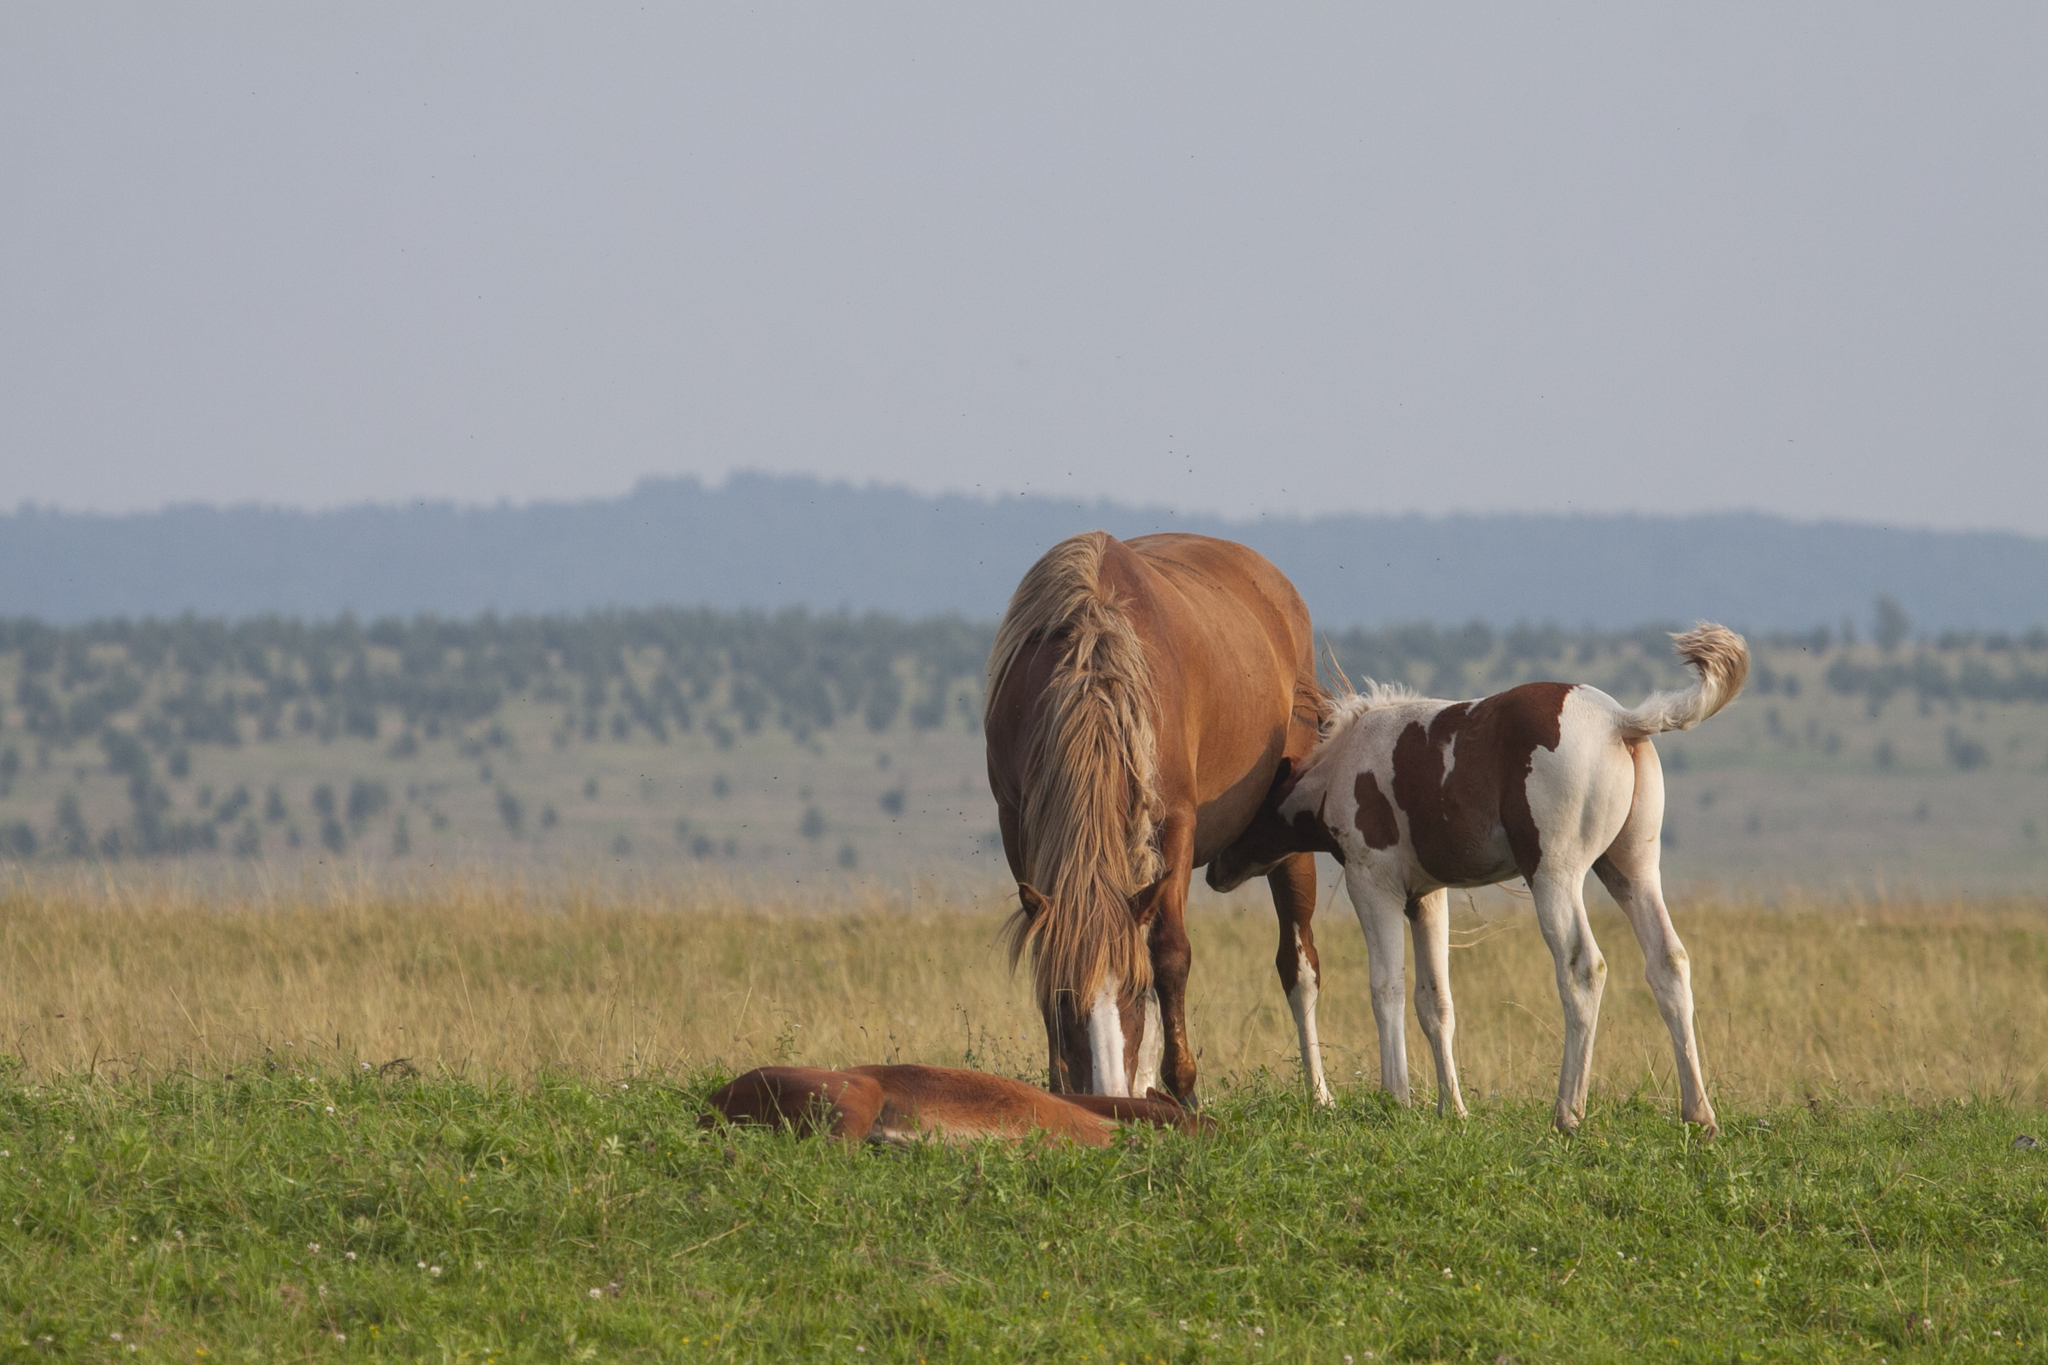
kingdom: Animalia
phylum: Chordata
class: Mammalia
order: Perissodactyla
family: Equidae
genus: Equus
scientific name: Equus caballus
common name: Horse
